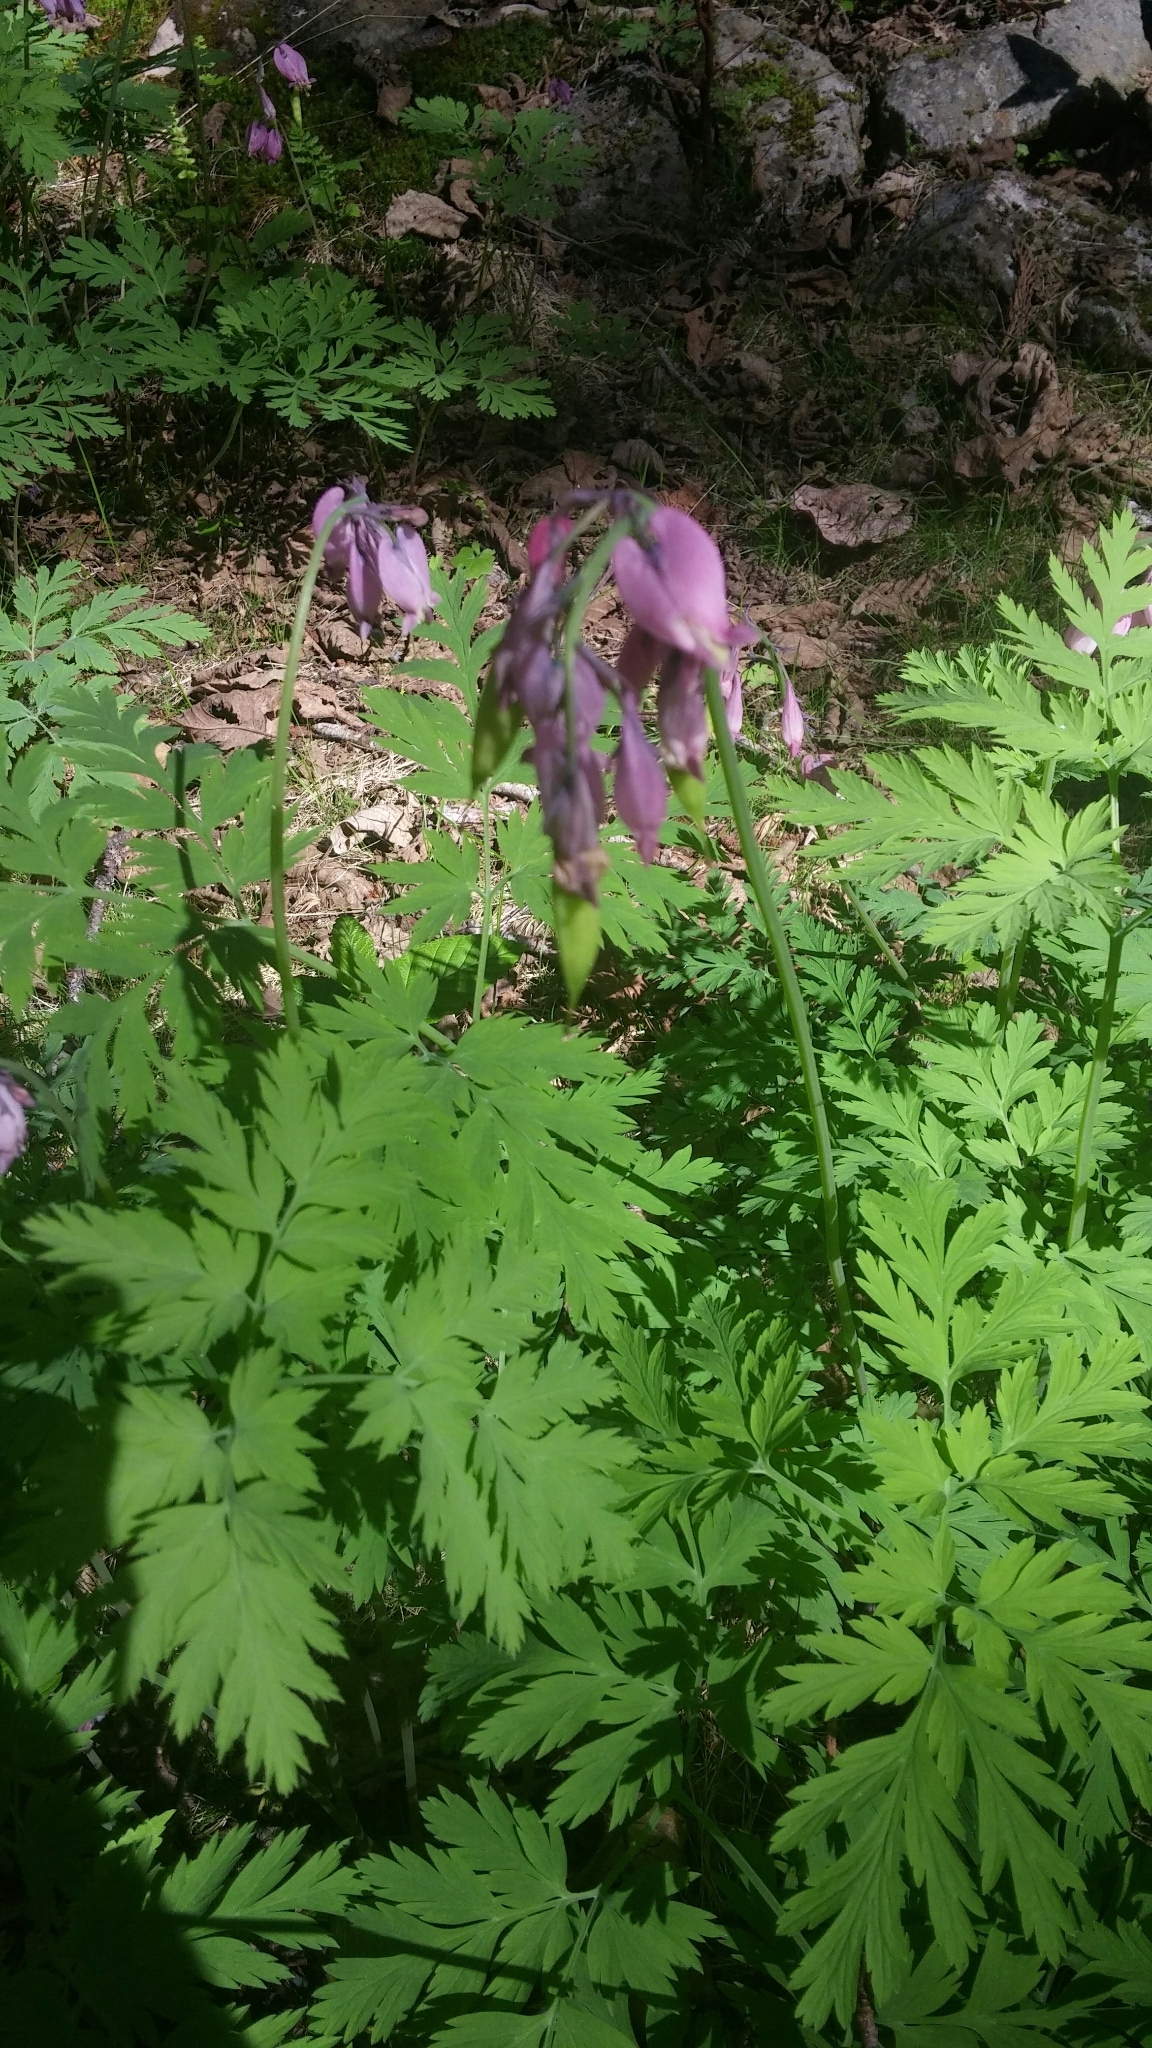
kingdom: Plantae
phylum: Tracheophyta
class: Magnoliopsida
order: Ranunculales
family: Papaveraceae
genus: Dicentra
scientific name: Dicentra formosa
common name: Bleeding-heart
